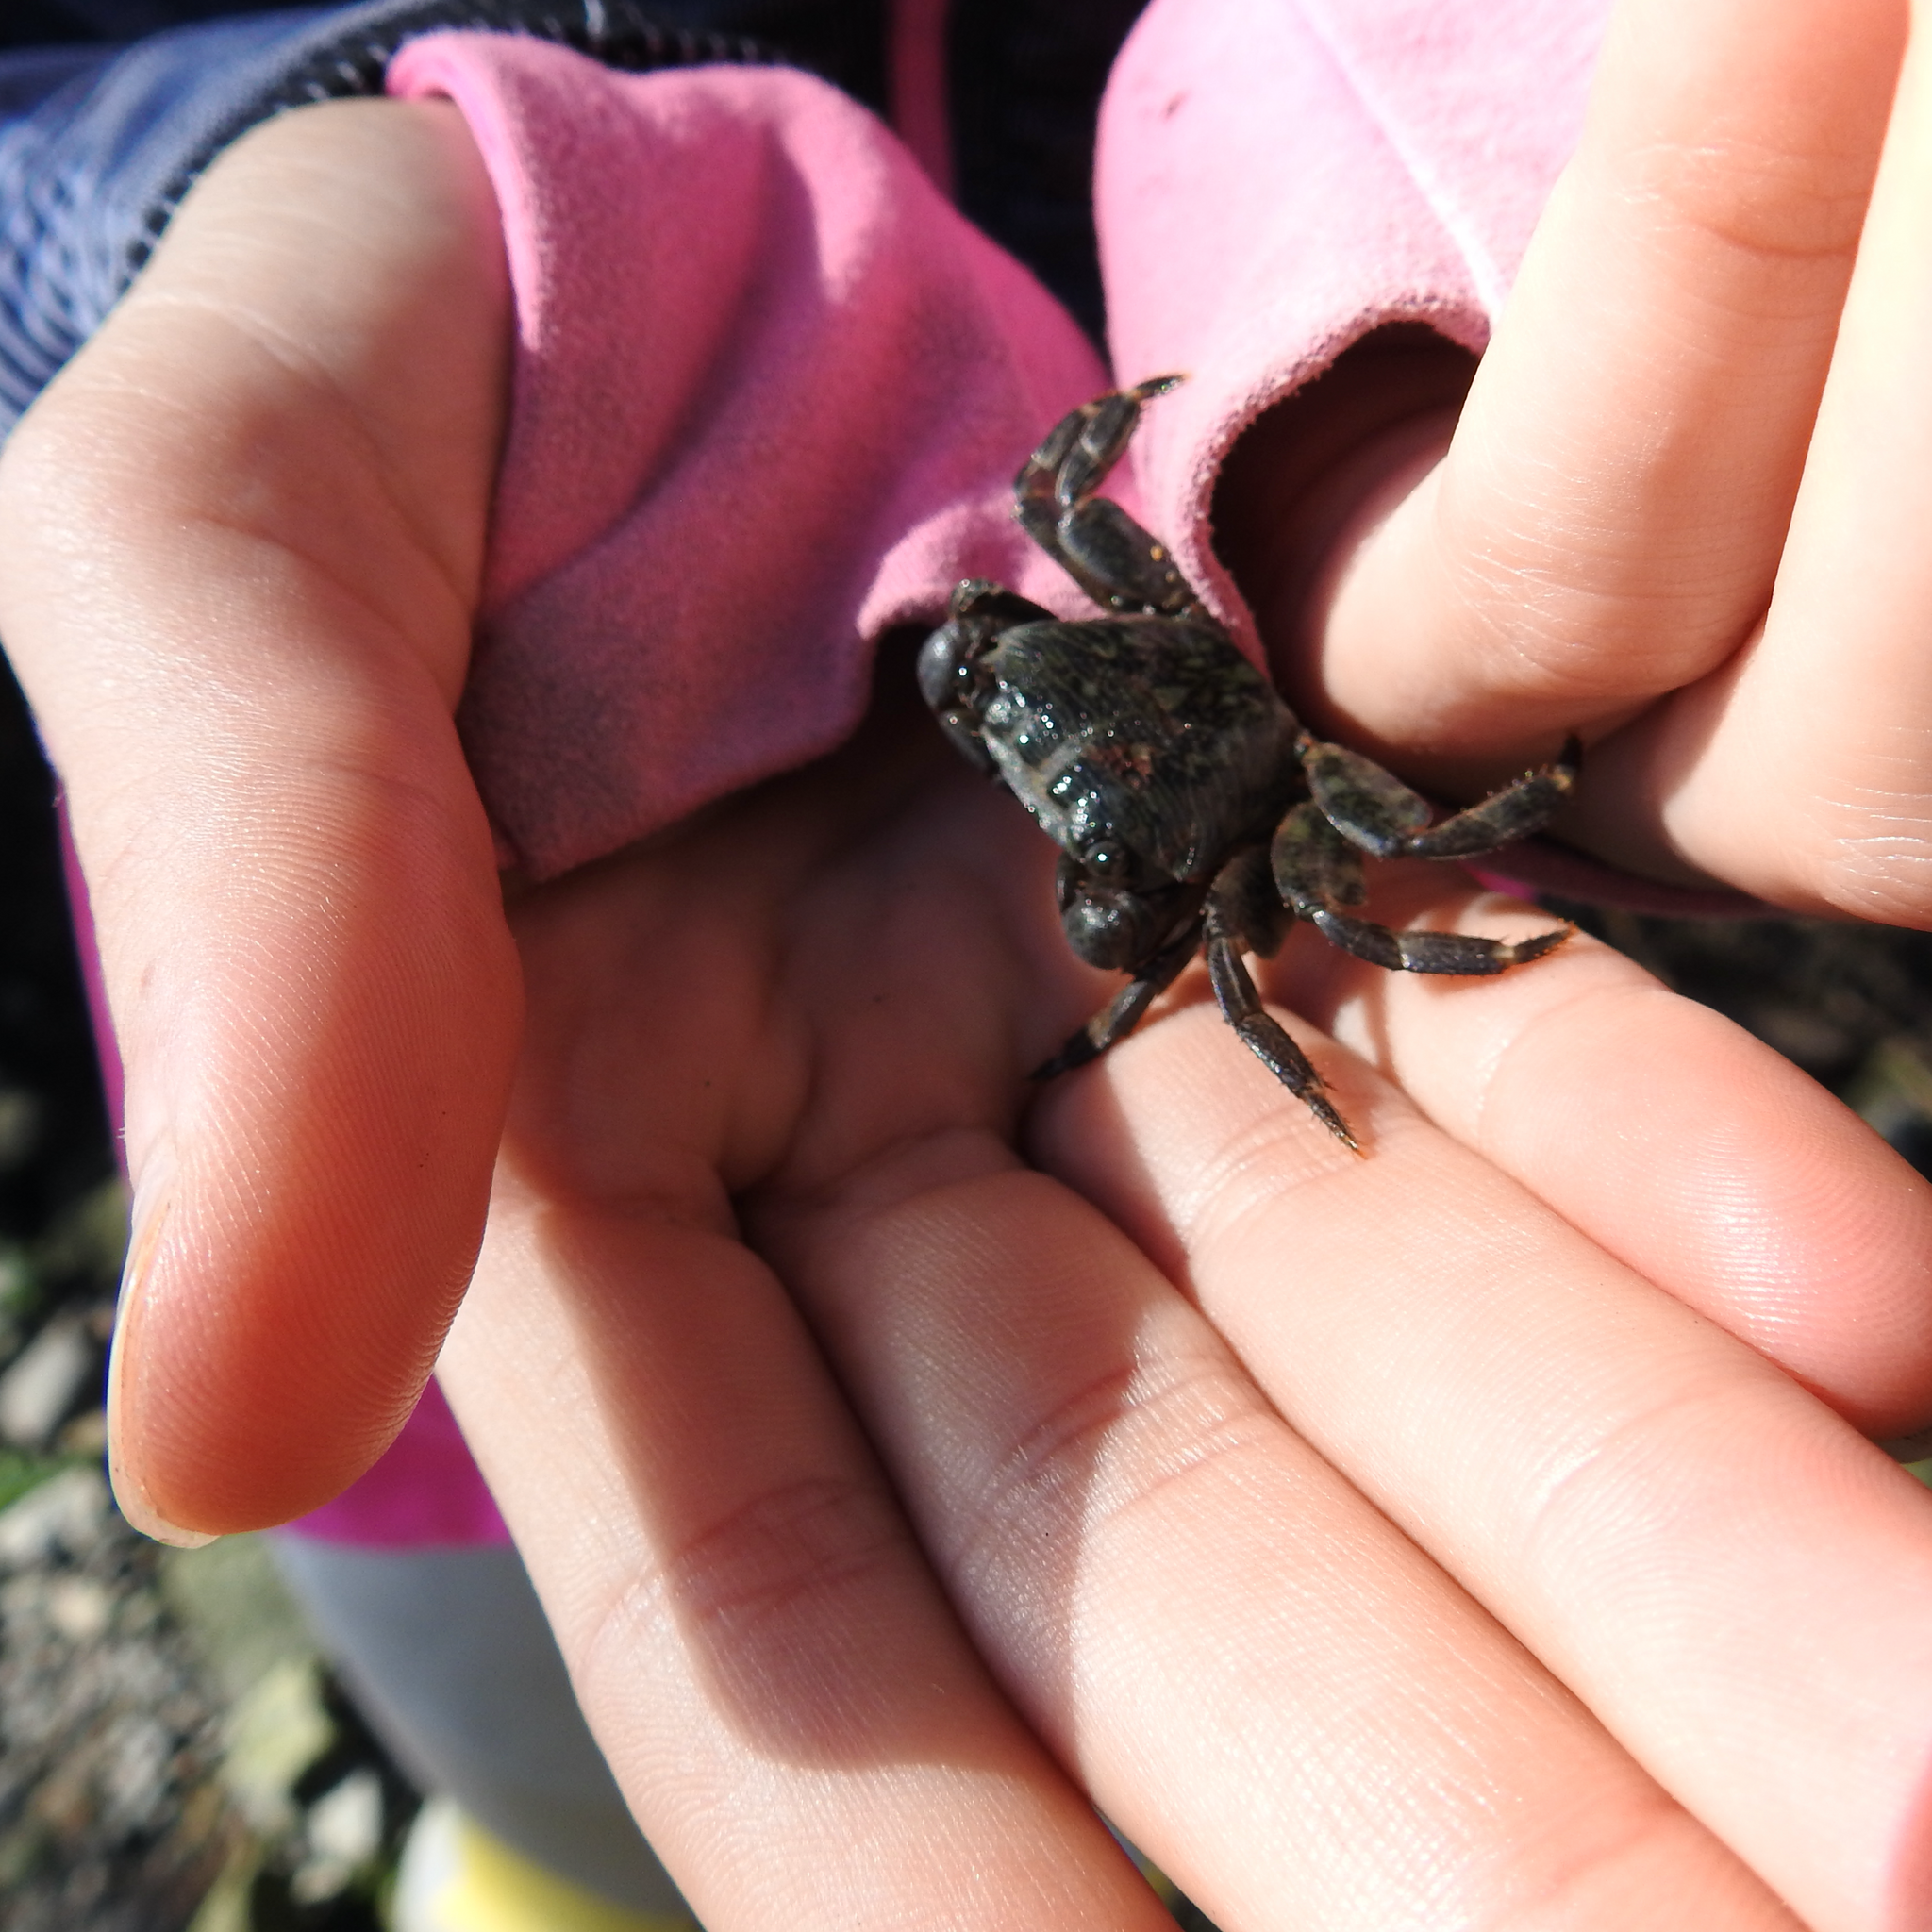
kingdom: Animalia
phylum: Arthropoda
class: Malacostraca
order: Decapoda
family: Grapsidae
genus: Pachygrapsus
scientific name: Pachygrapsus crassipes
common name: Striped shore crab
